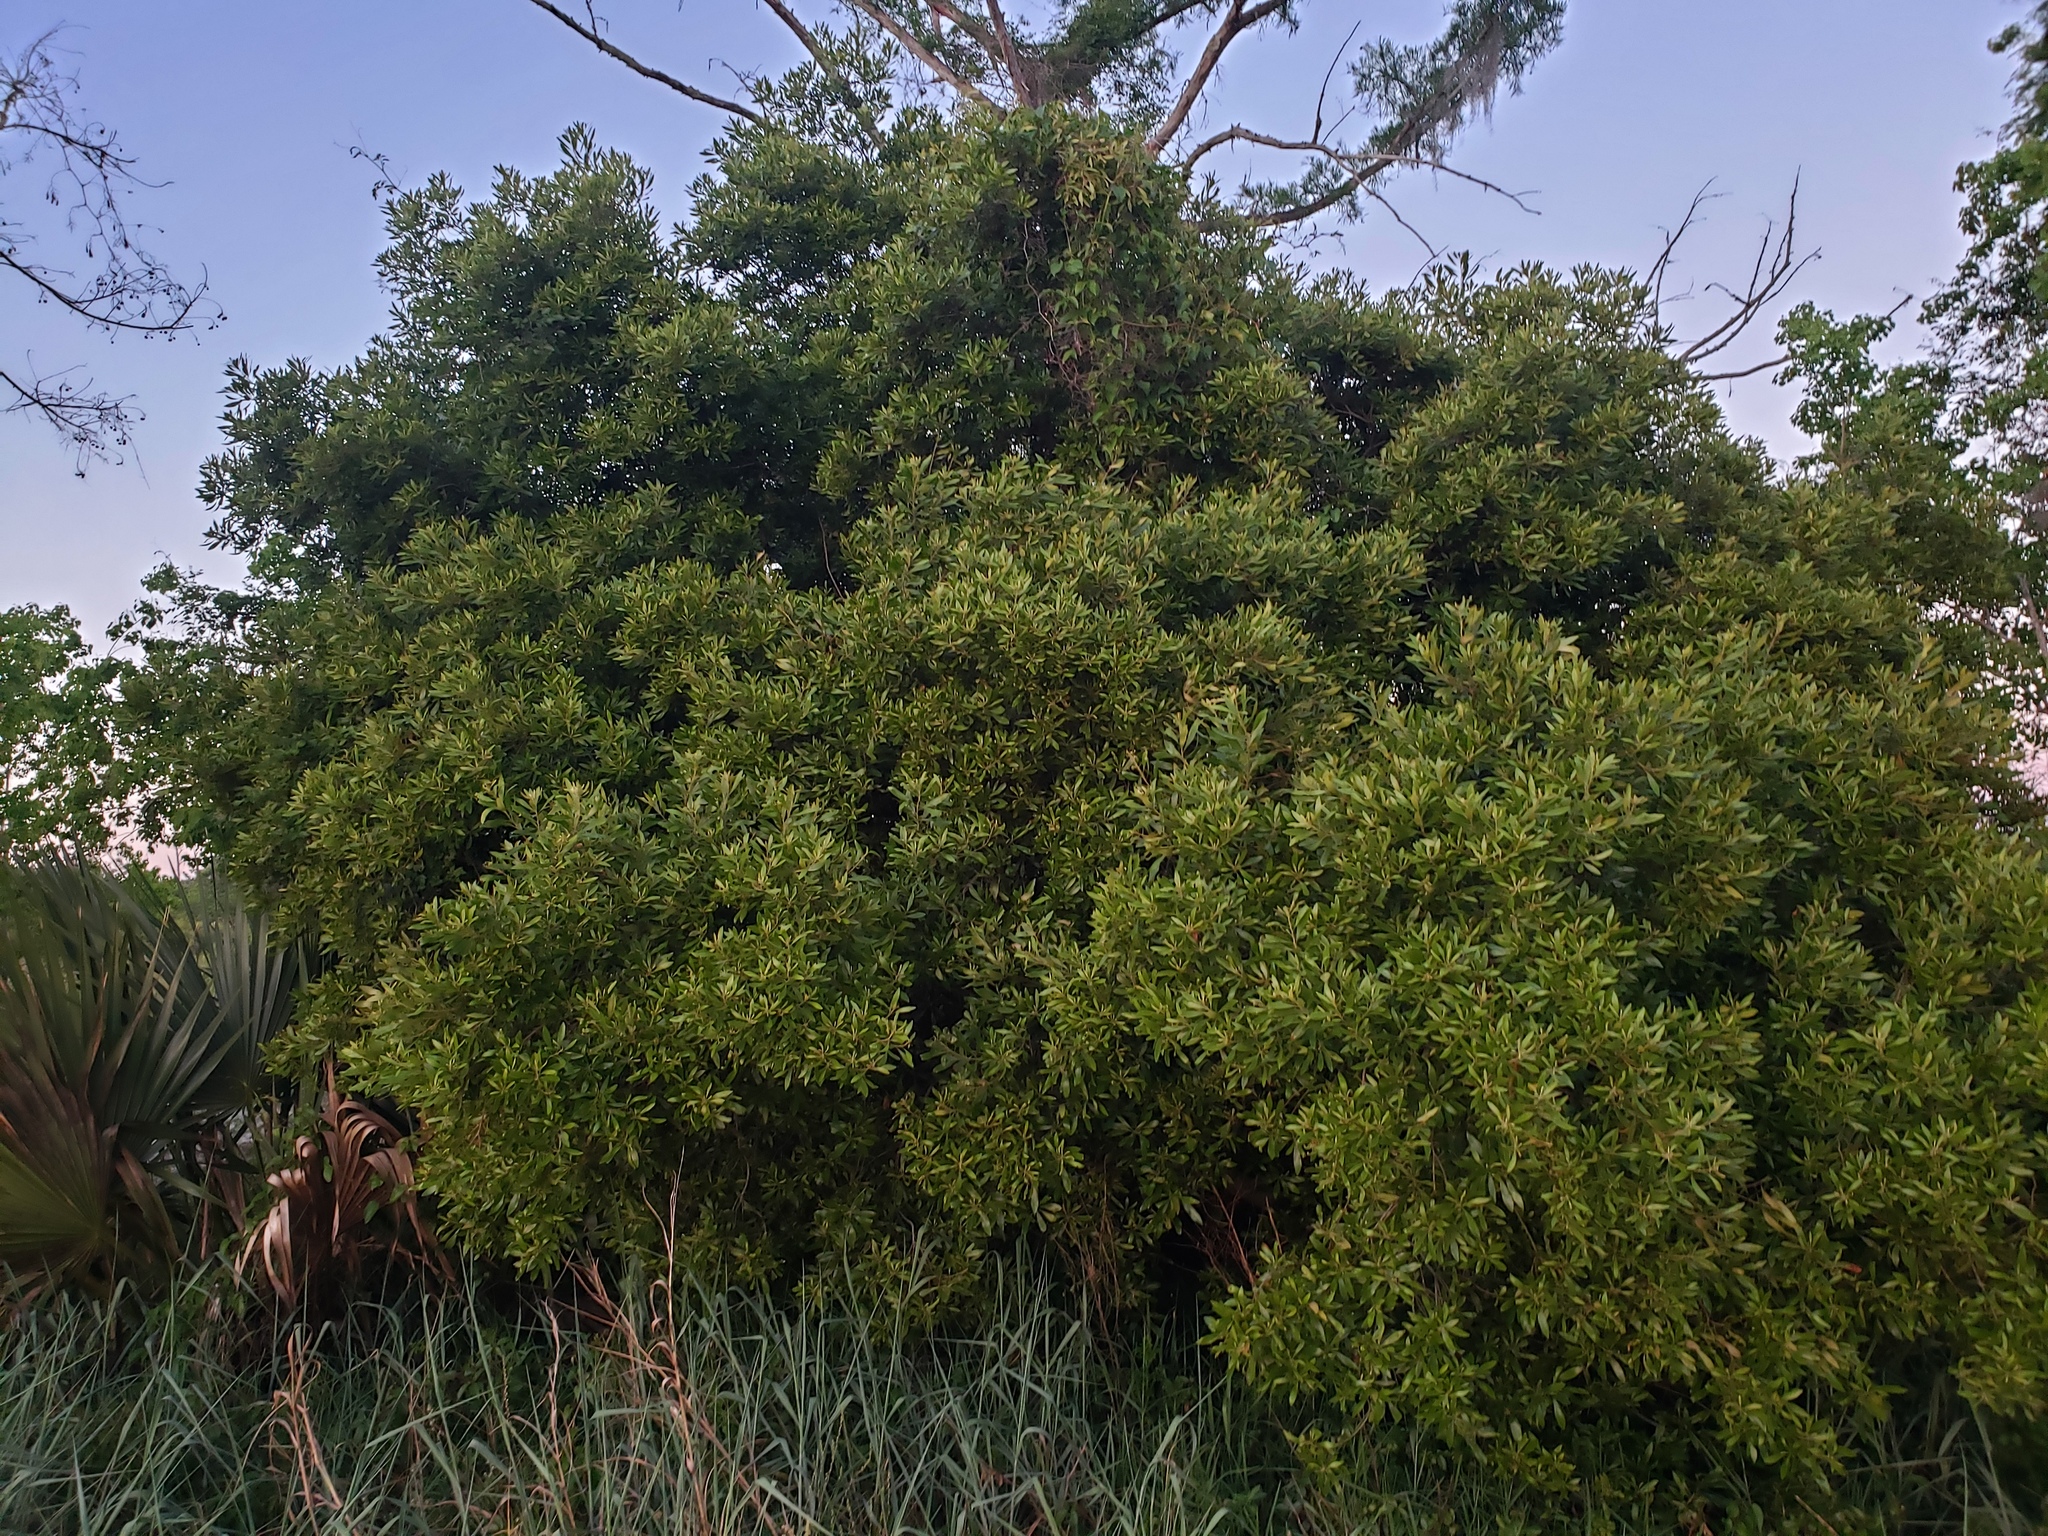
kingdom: Plantae
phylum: Tracheophyta
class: Magnoliopsida
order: Fagales
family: Myricaceae
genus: Morella
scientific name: Morella cerifera
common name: Wax myrtle
